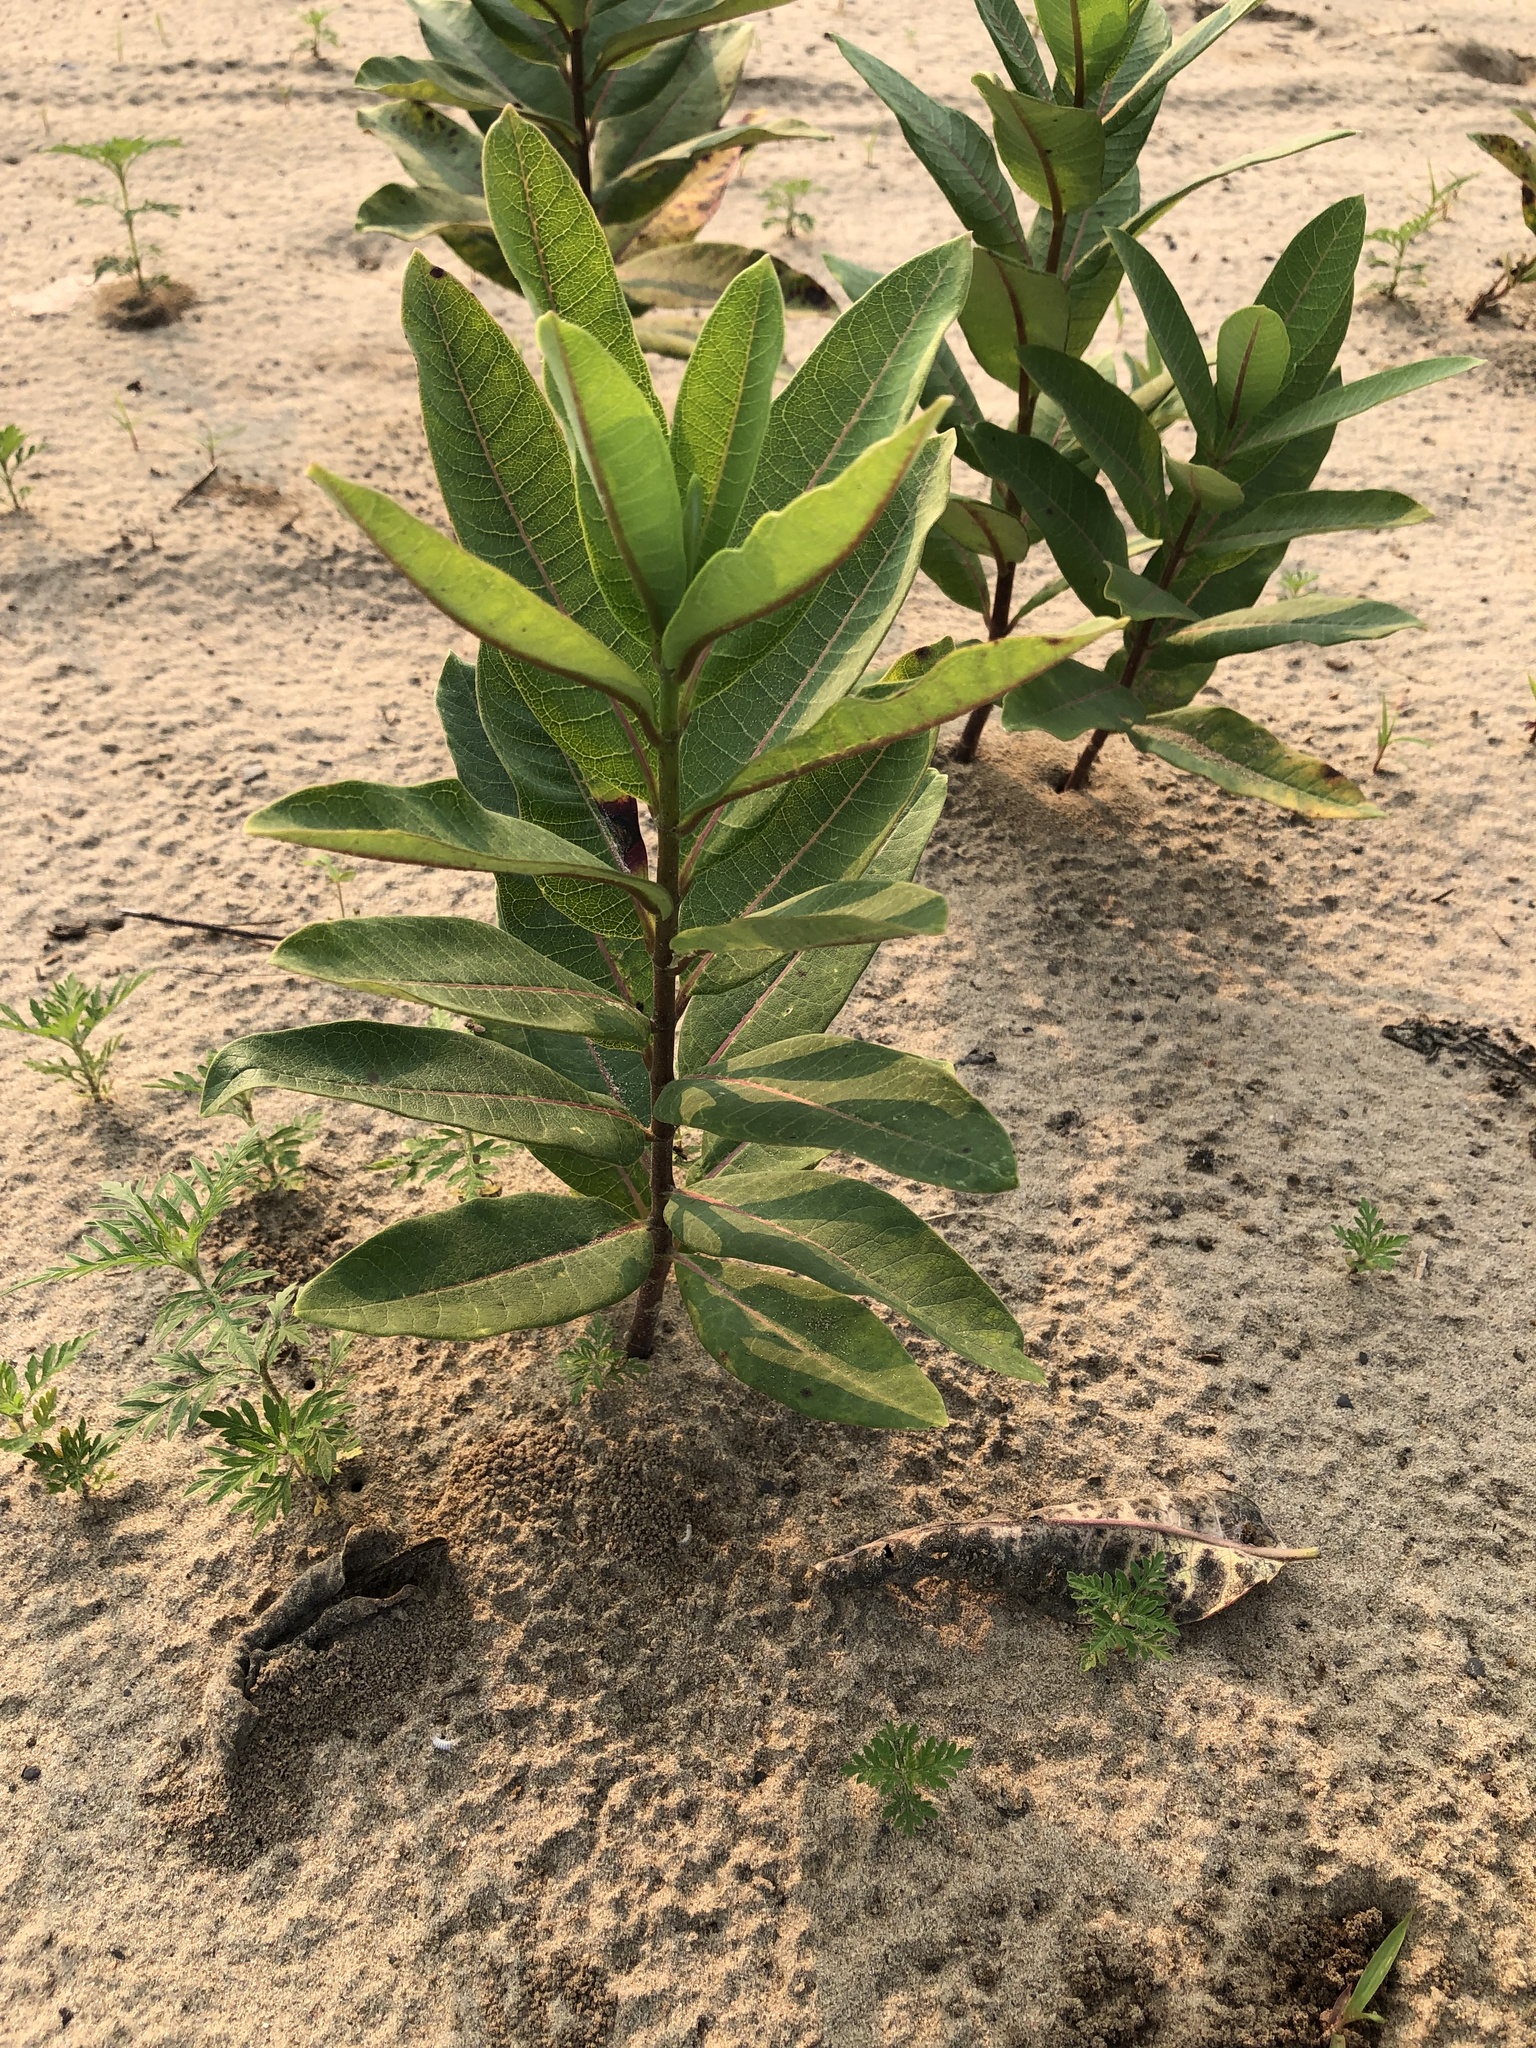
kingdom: Plantae
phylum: Tracheophyta
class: Magnoliopsida
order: Gentianales
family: Apocynaceae
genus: Asclepias
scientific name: Asclepias syriaca
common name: Common milkweed
